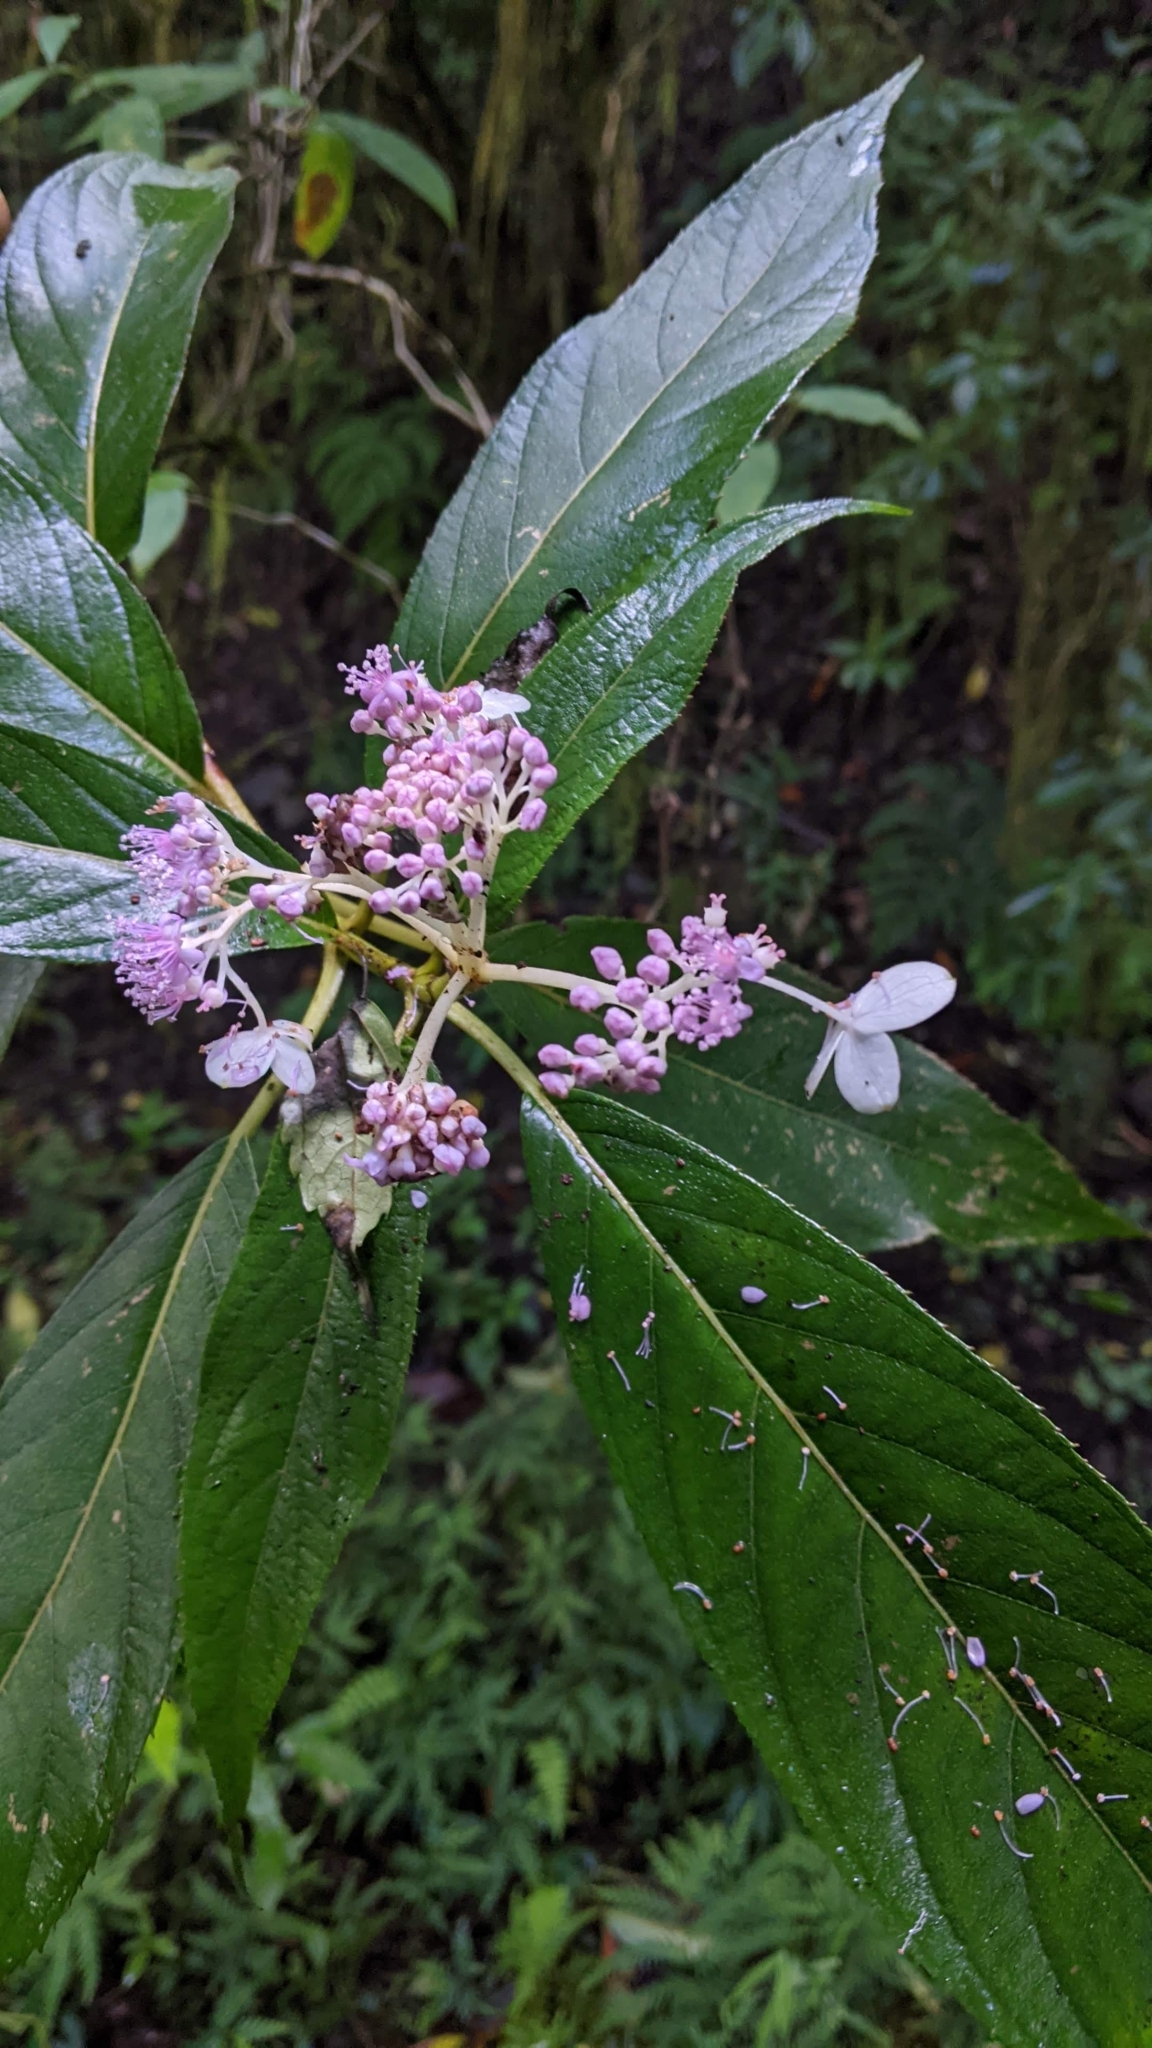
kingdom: Plantae
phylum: Tracheophyta
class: Magnoliopsida
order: Cornales
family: Hydrangeaceae
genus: Hydrangea
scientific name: Hydrangea longifolia
